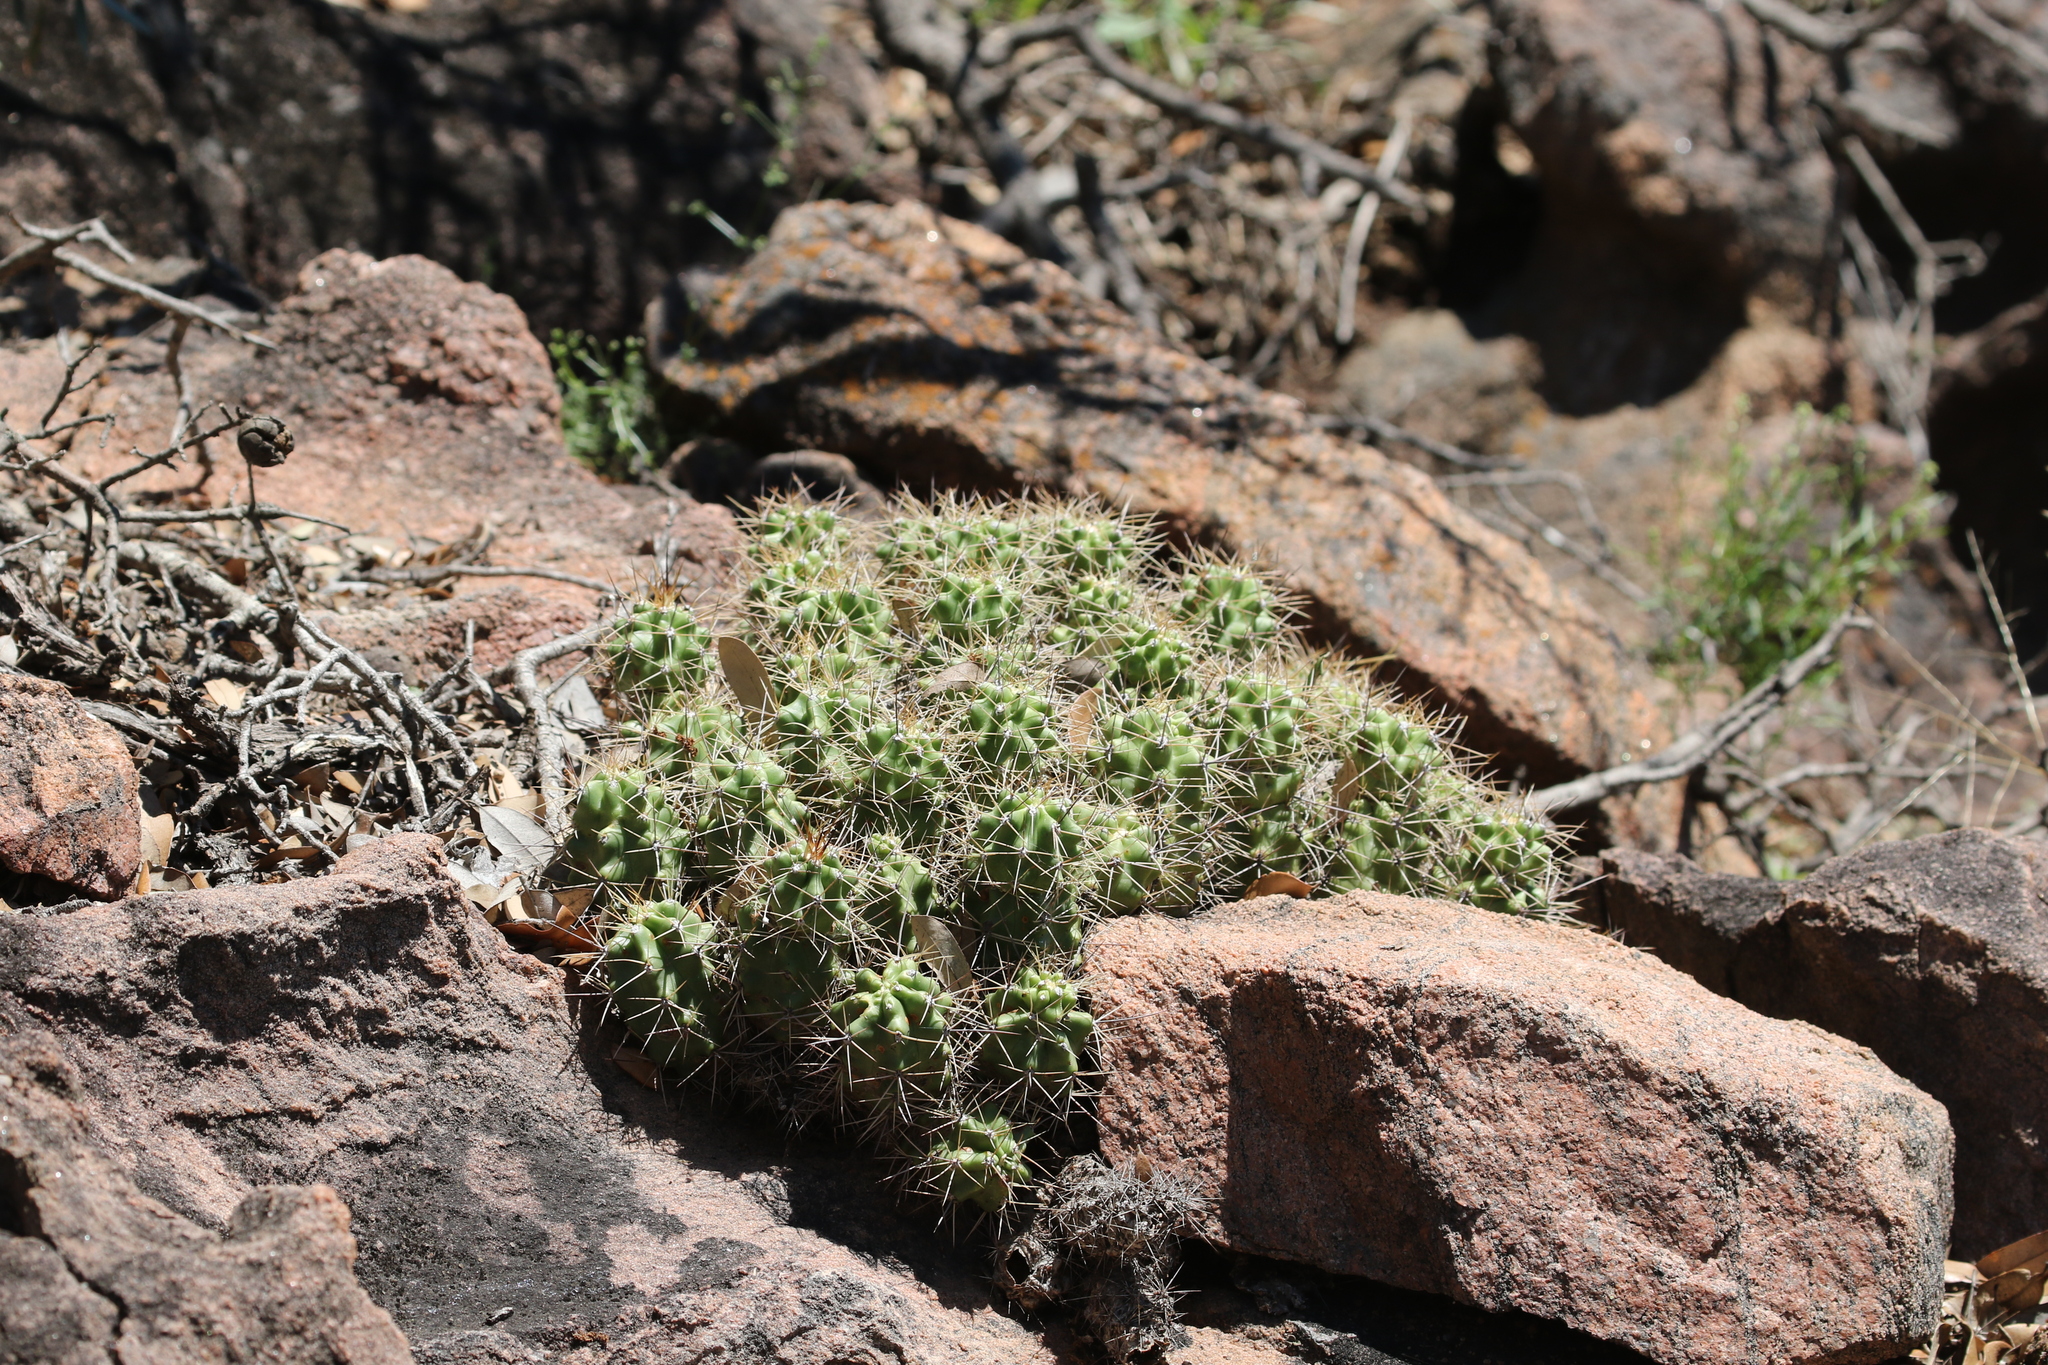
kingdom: Plantae
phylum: Tracheophyta
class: Magnoliopsida
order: Caryophyllales
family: Cactaceae
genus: Echinocereus
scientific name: Echinocereus coccineus
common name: Scarlet hedgehog cactus
